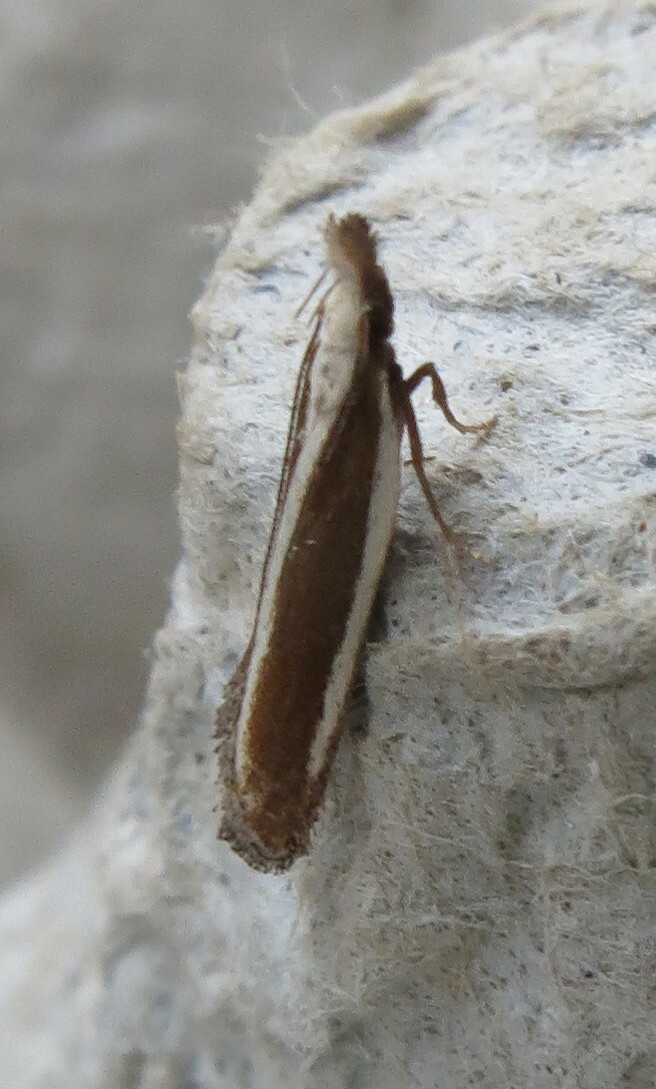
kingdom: Animalia
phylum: Arthropoda
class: Insecta
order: Lepidoptera
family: Gelechiidae
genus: Dichomeris
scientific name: Dichomeris marginella
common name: Juniper webworm
